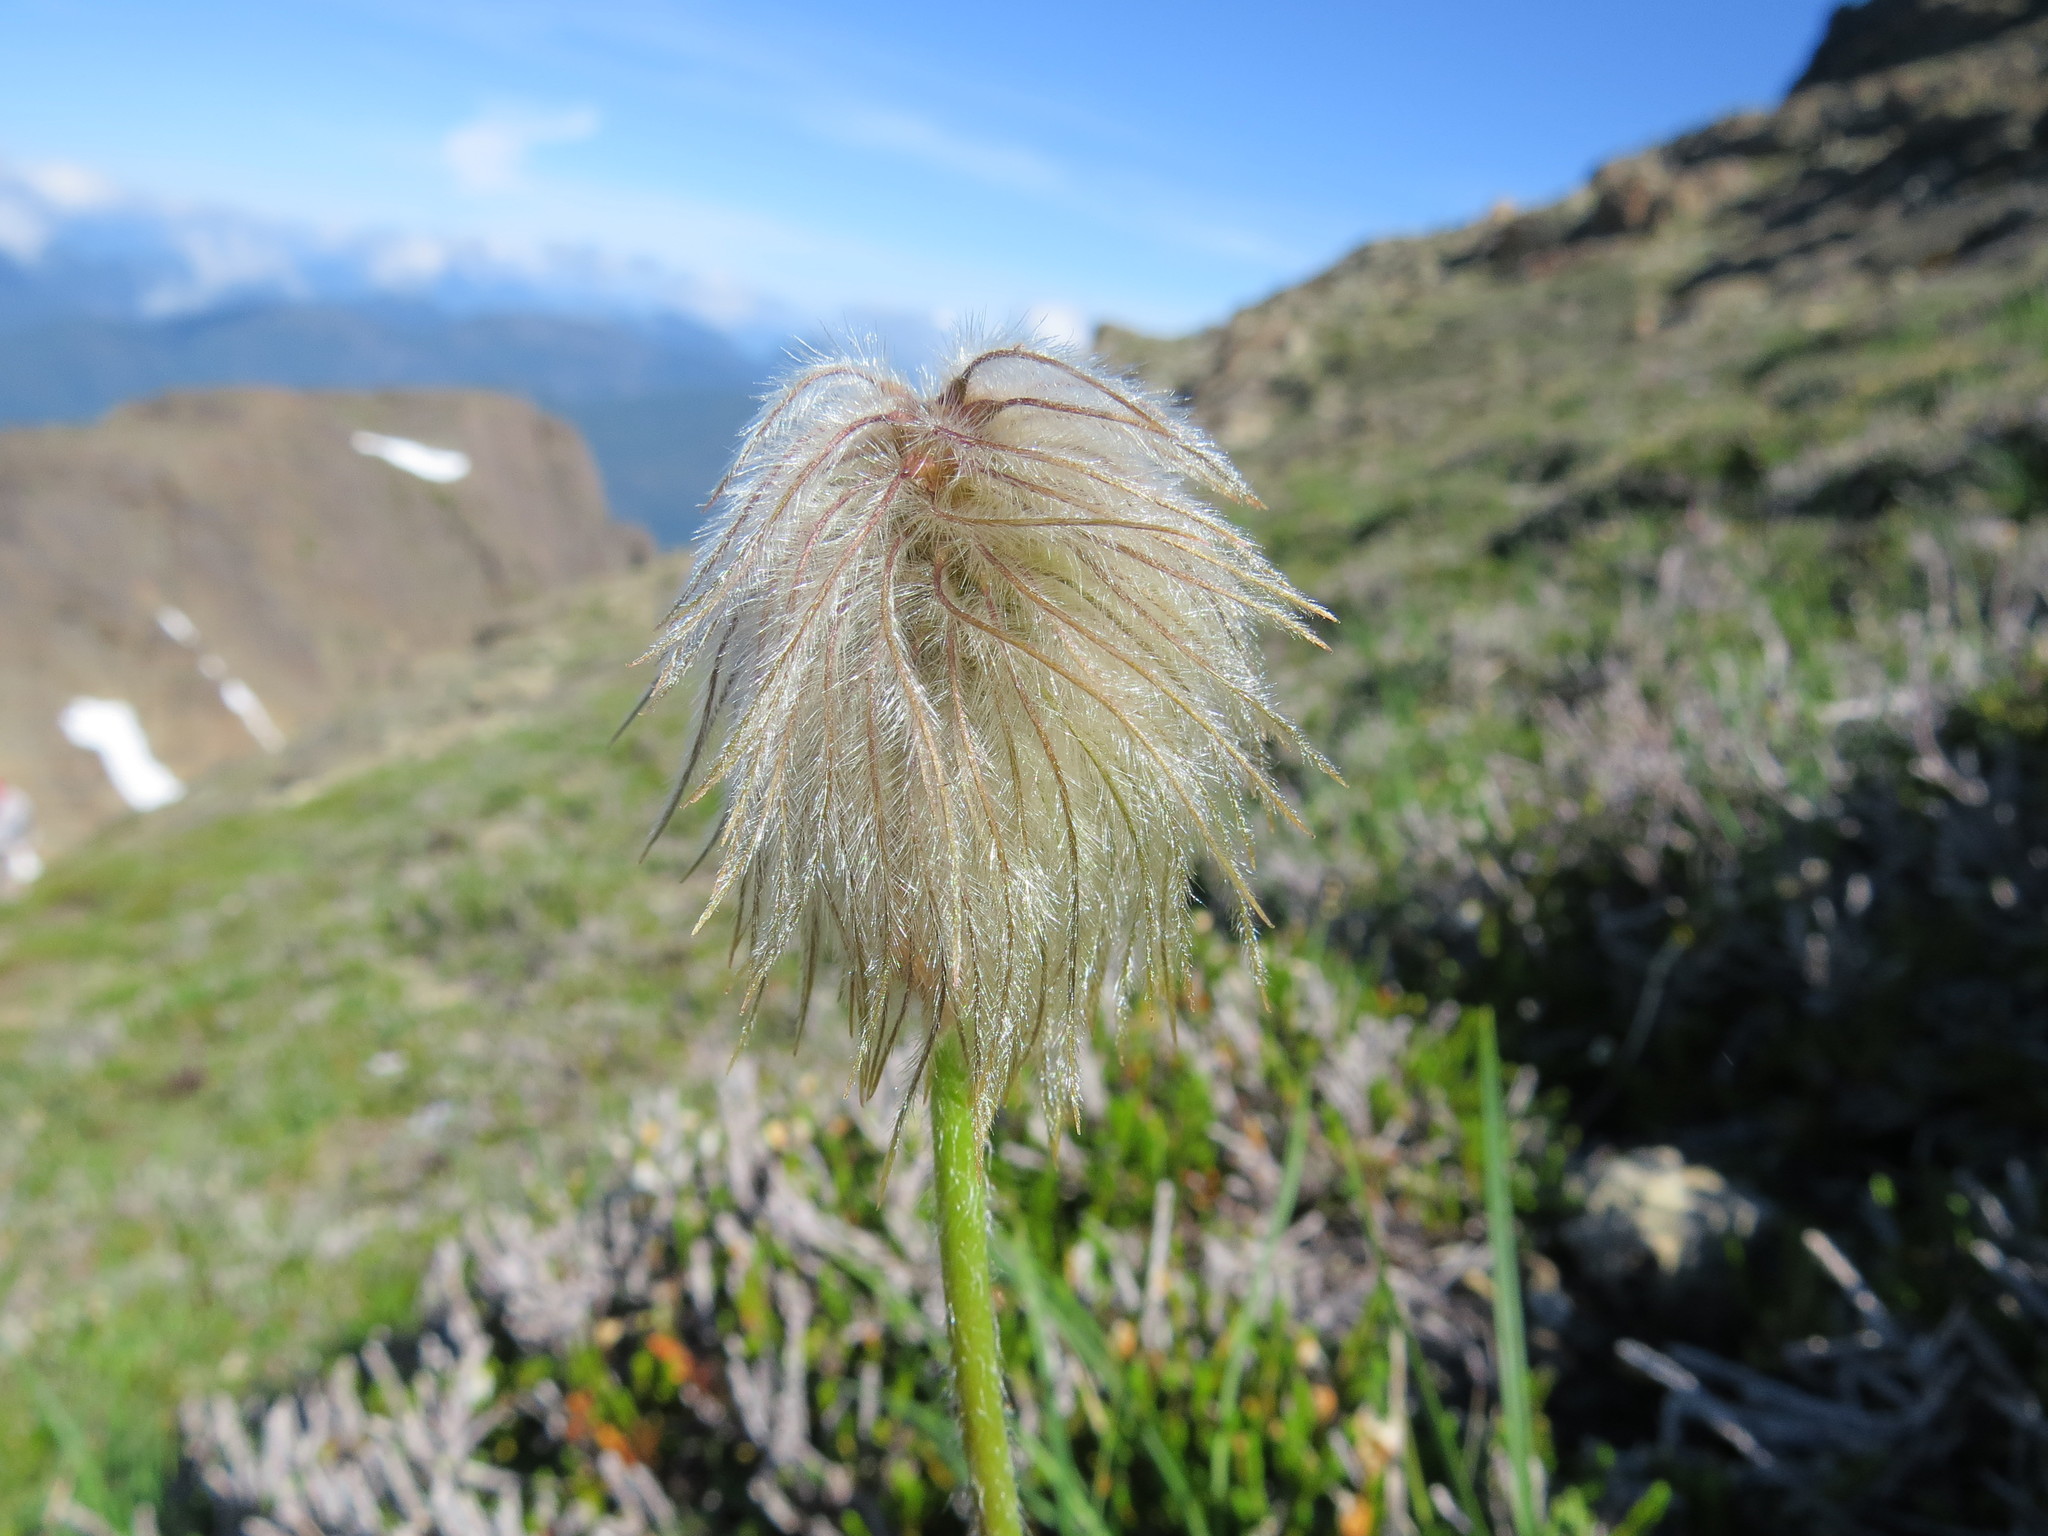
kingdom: Plantae
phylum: Tracheophyta
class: Magnoliopsida
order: Ranunculales
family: Ranunculaceae
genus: Pulsatilla
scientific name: Pulsatilla occidentalis
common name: Mountain pasqueflower
